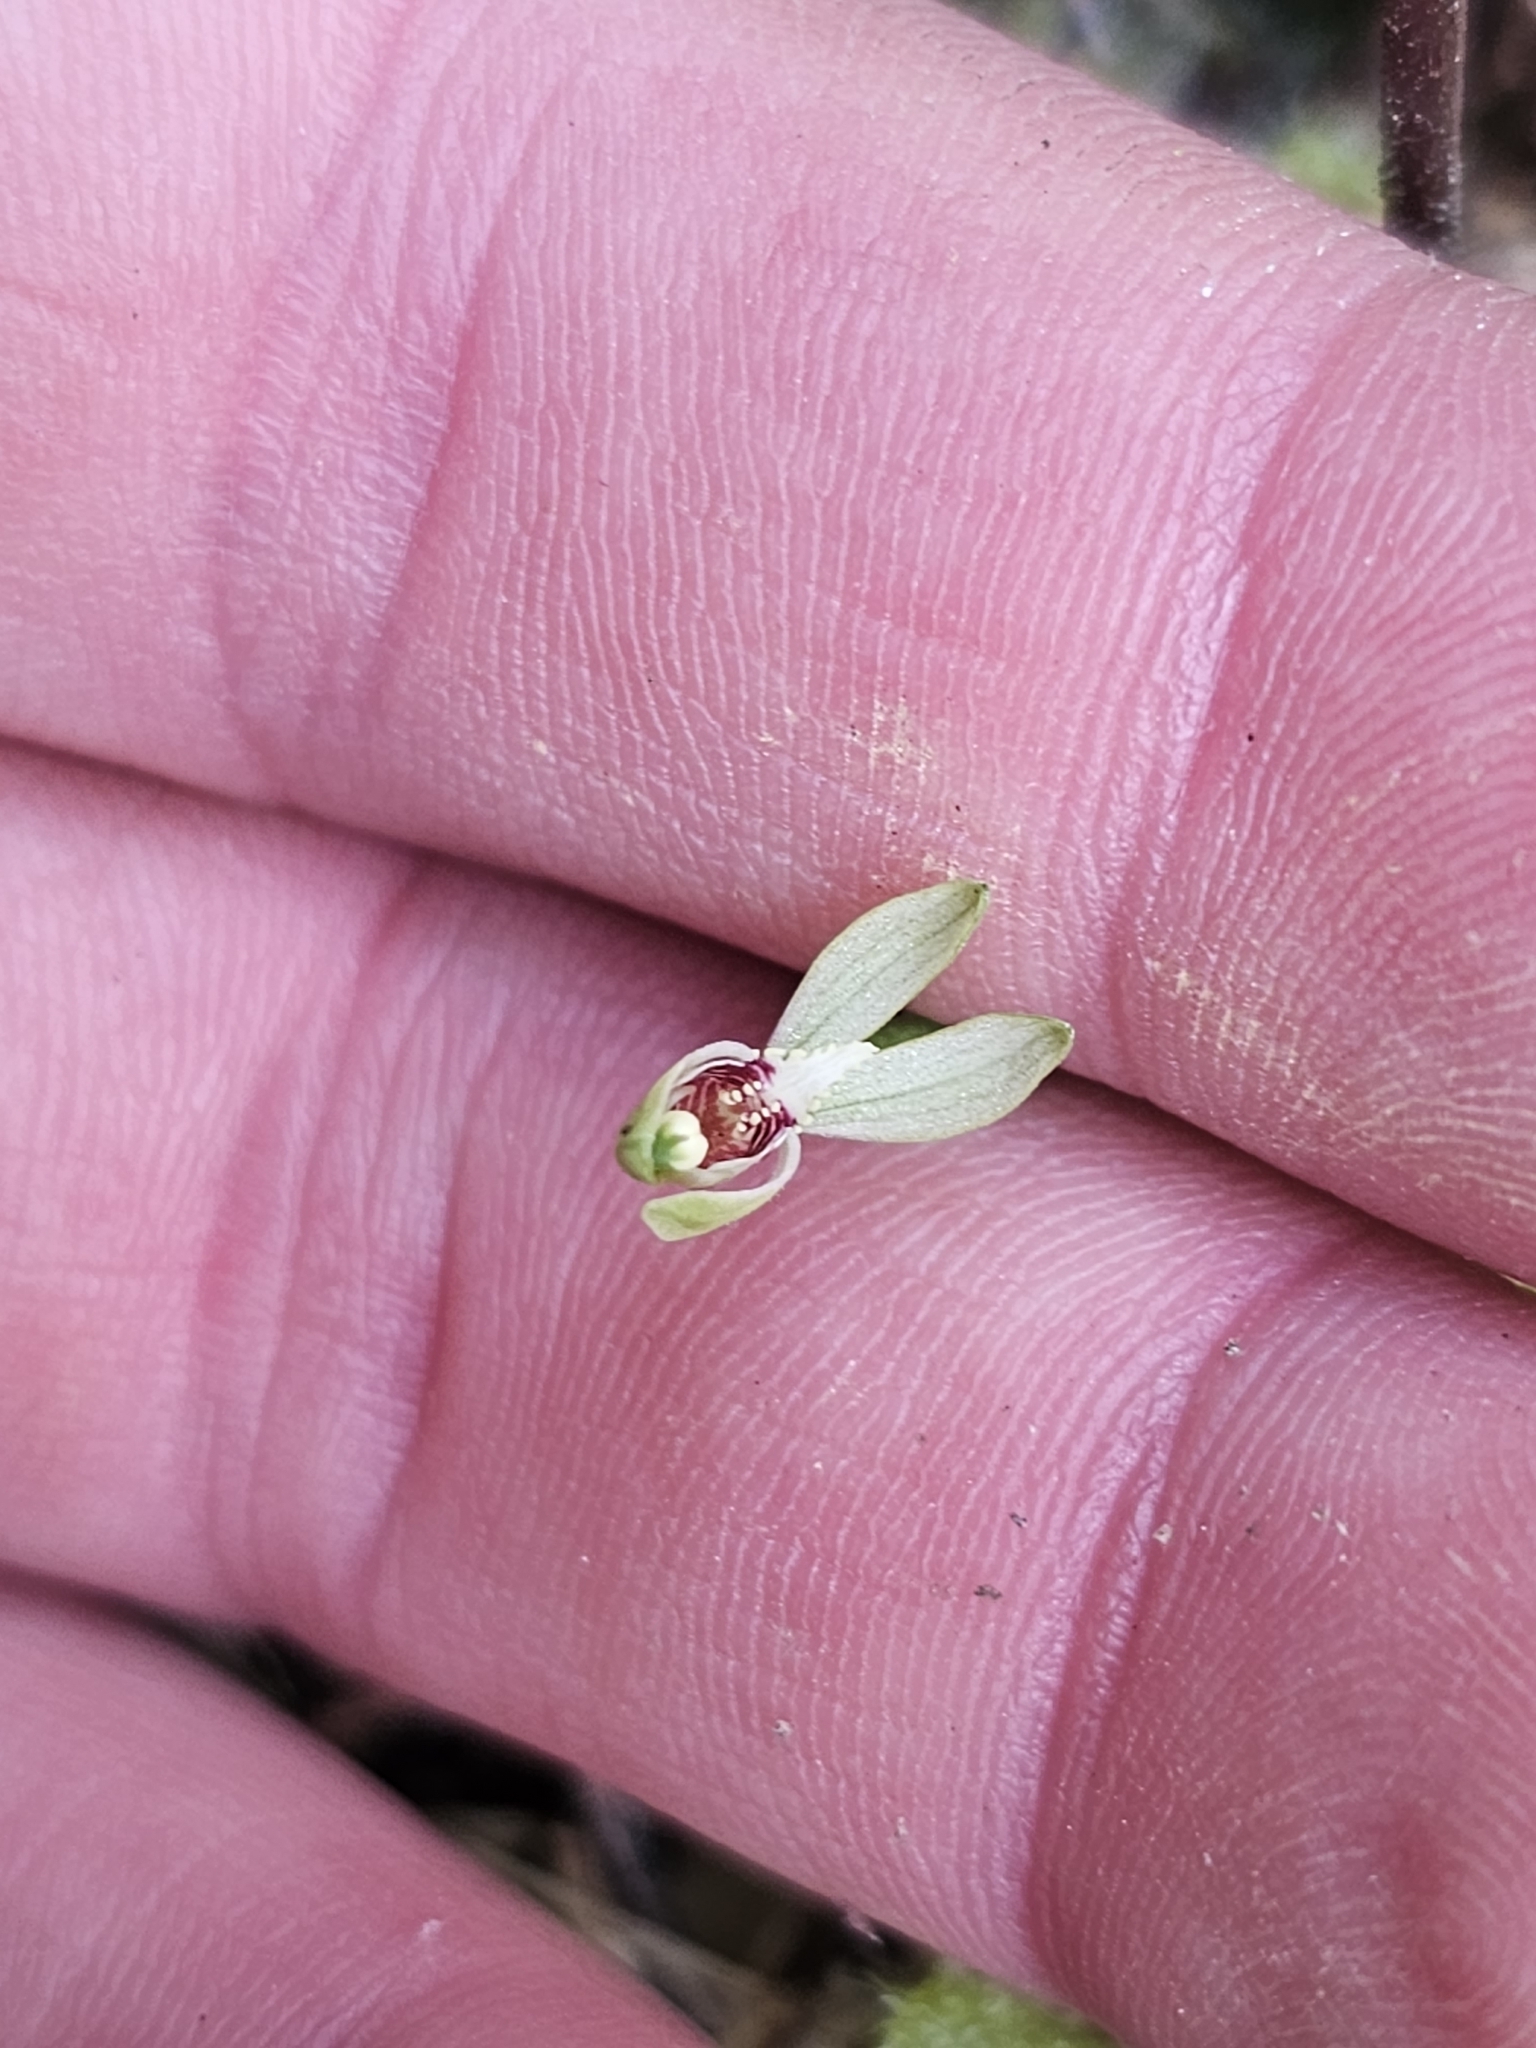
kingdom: Plantae
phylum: Tracheophyta
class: Liliopsida
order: Asparagales
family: Orchidaceae
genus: Caladenia
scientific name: Caladenia chlorostyla
